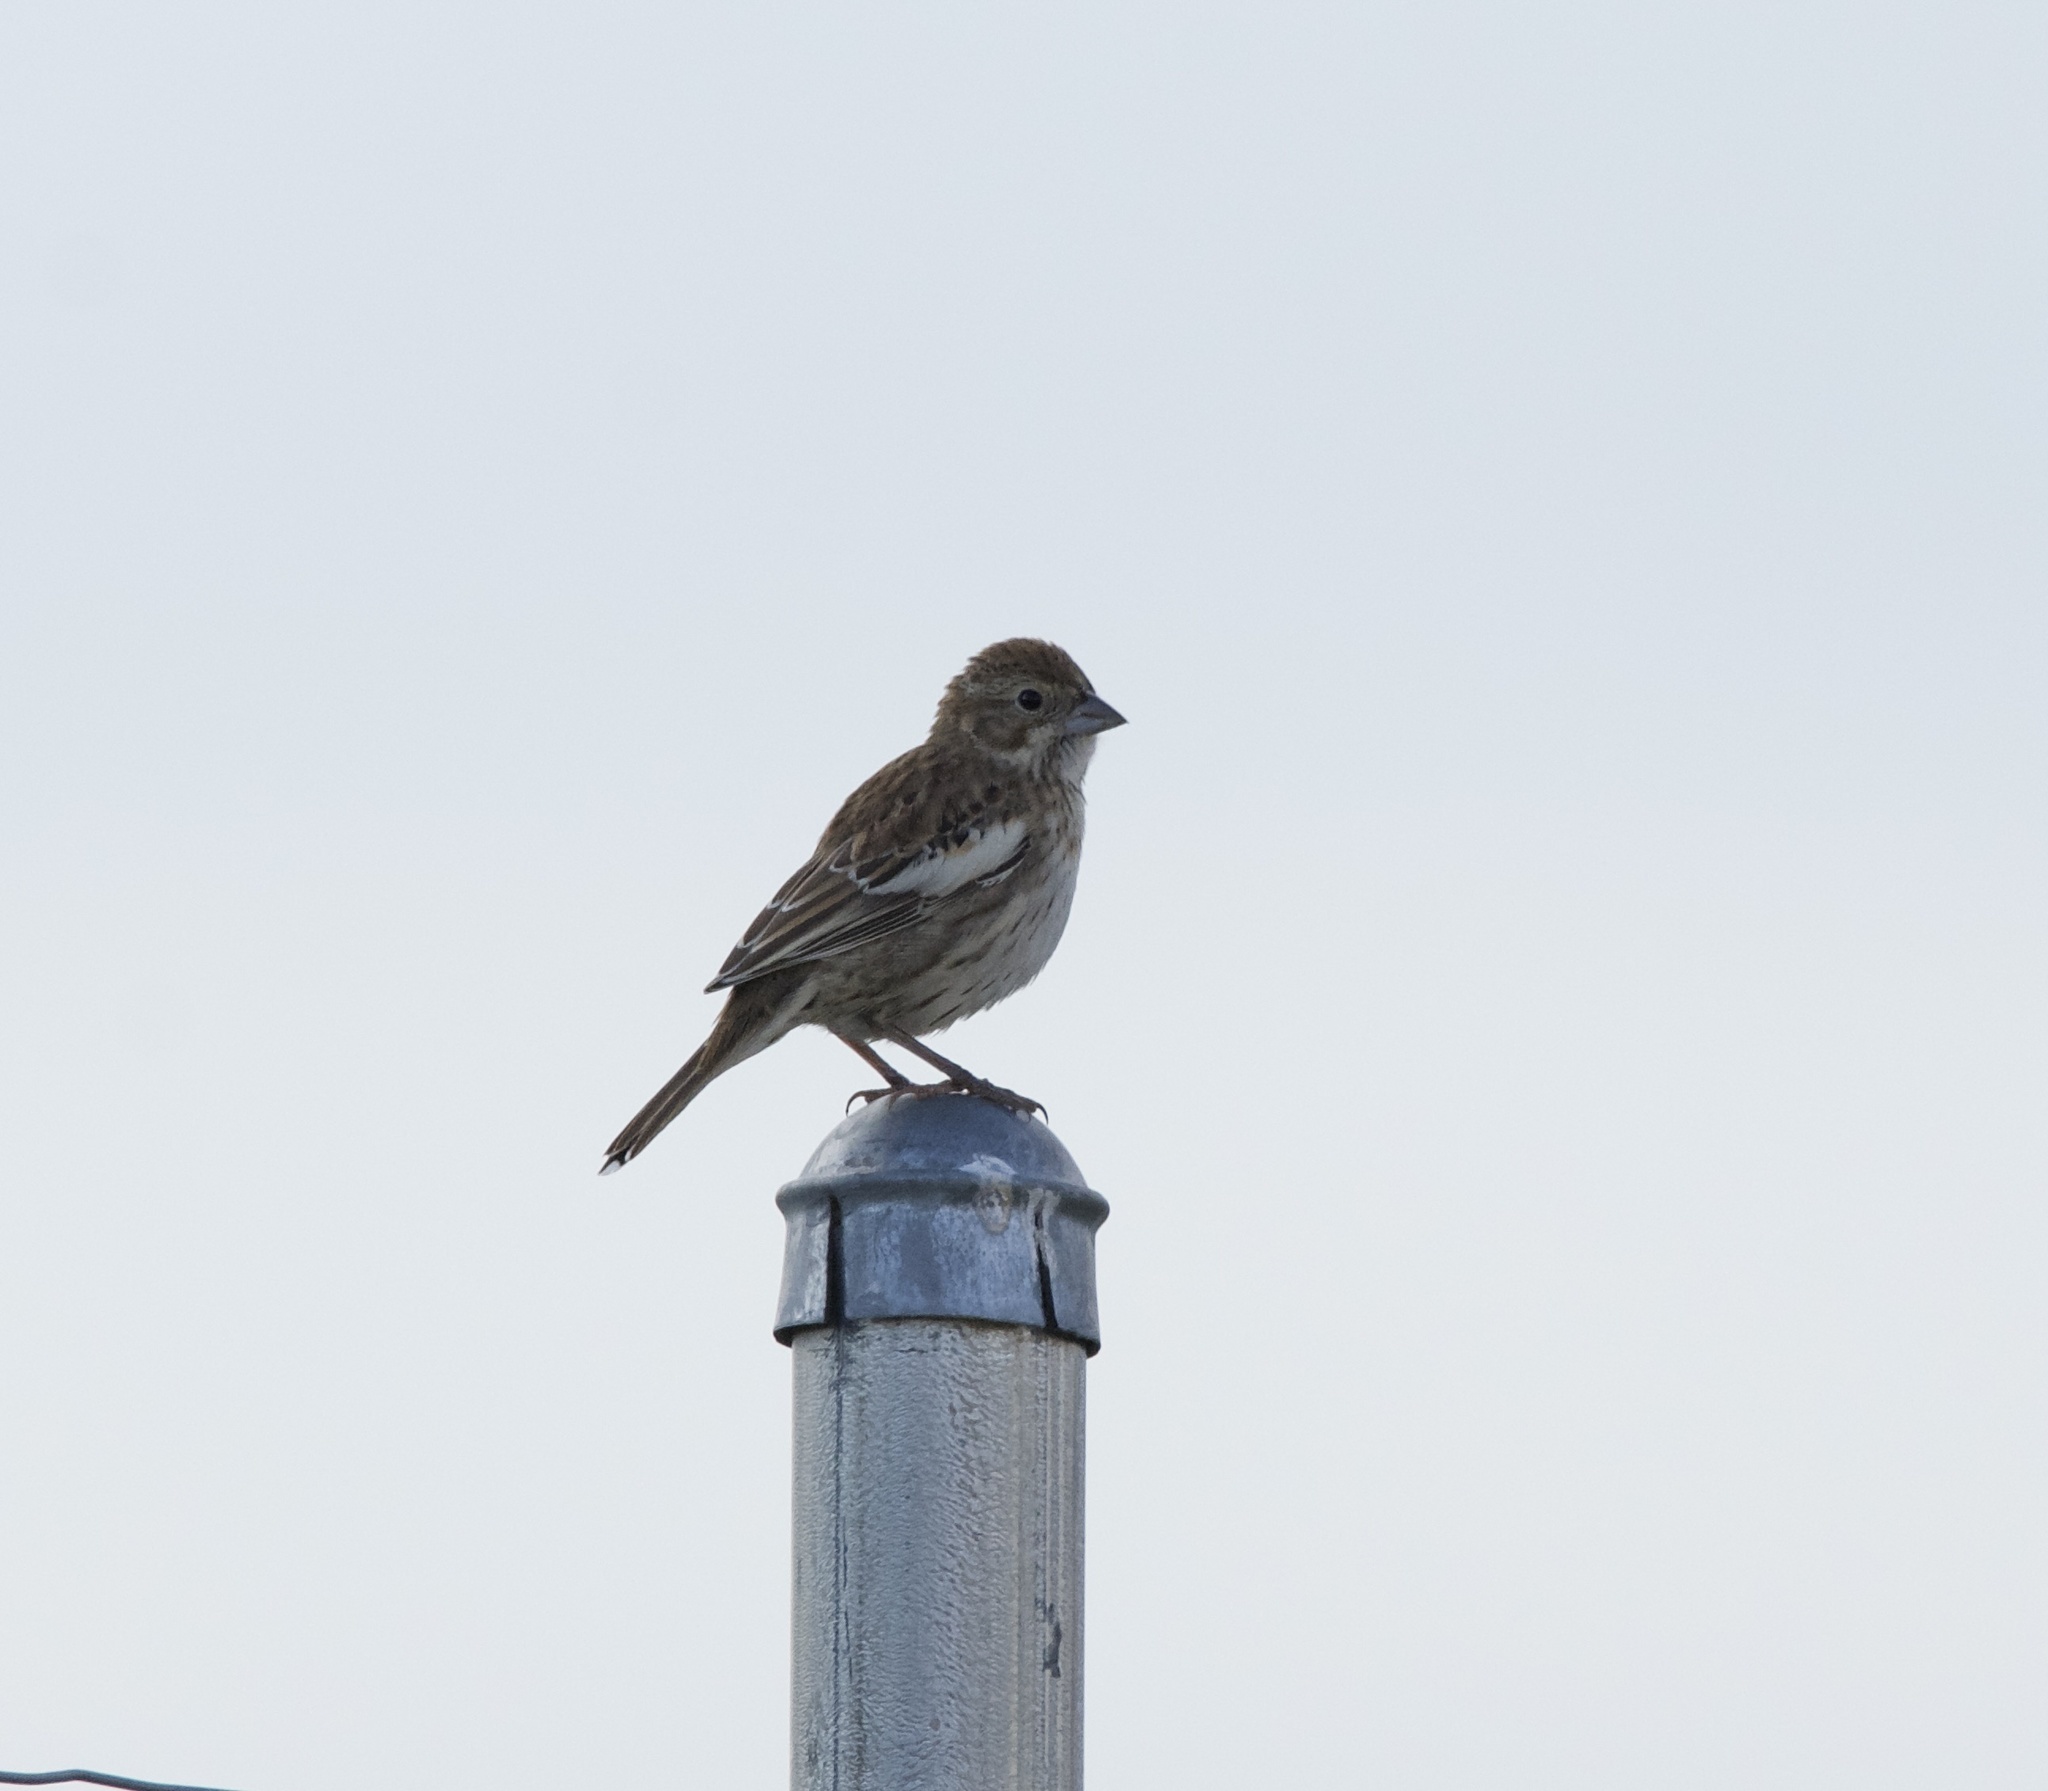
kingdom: Animalia
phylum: Chordata
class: Aves
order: Passeriformes
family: Passerellidae
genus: Calamospiza
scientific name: Calamospiza melanocorys
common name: Lark bunting
